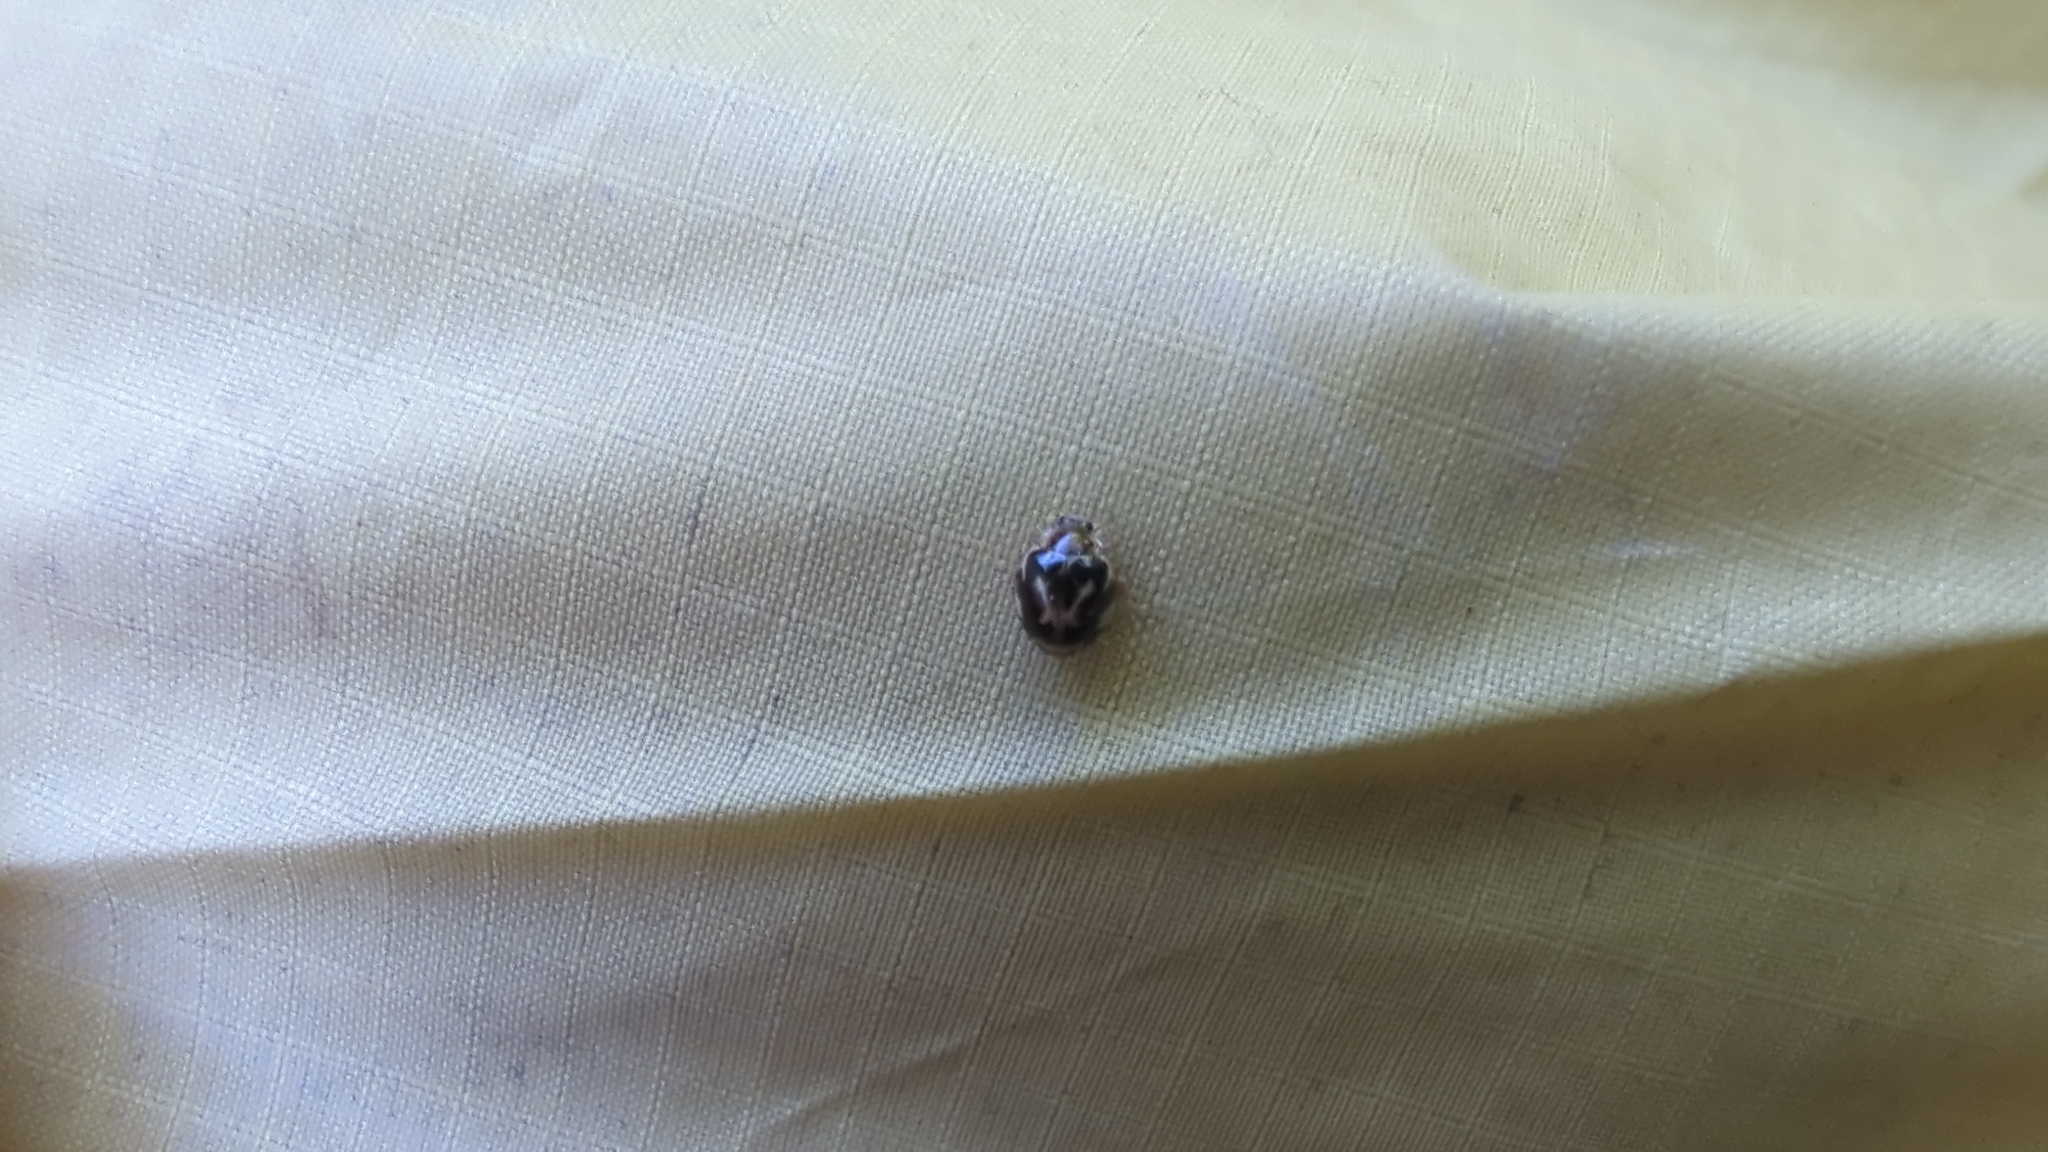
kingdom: Animalia
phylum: Arthropoda
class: Insecta
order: Coleoptera
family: Coccinellidae
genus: Psyllobora
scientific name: Psyllobora vigintimaculata
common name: Ladybird beetle
